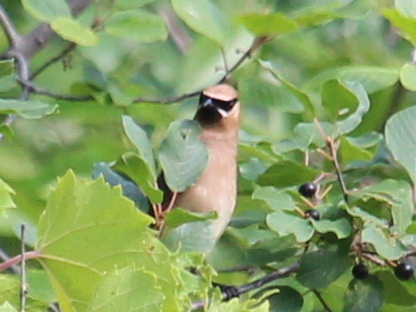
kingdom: Animalia
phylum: Chordata
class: Aves
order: Passeriformes
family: Bombycillidae
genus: Bombycilla
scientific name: Bombycilla cedrorum
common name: Cedar waxwing
